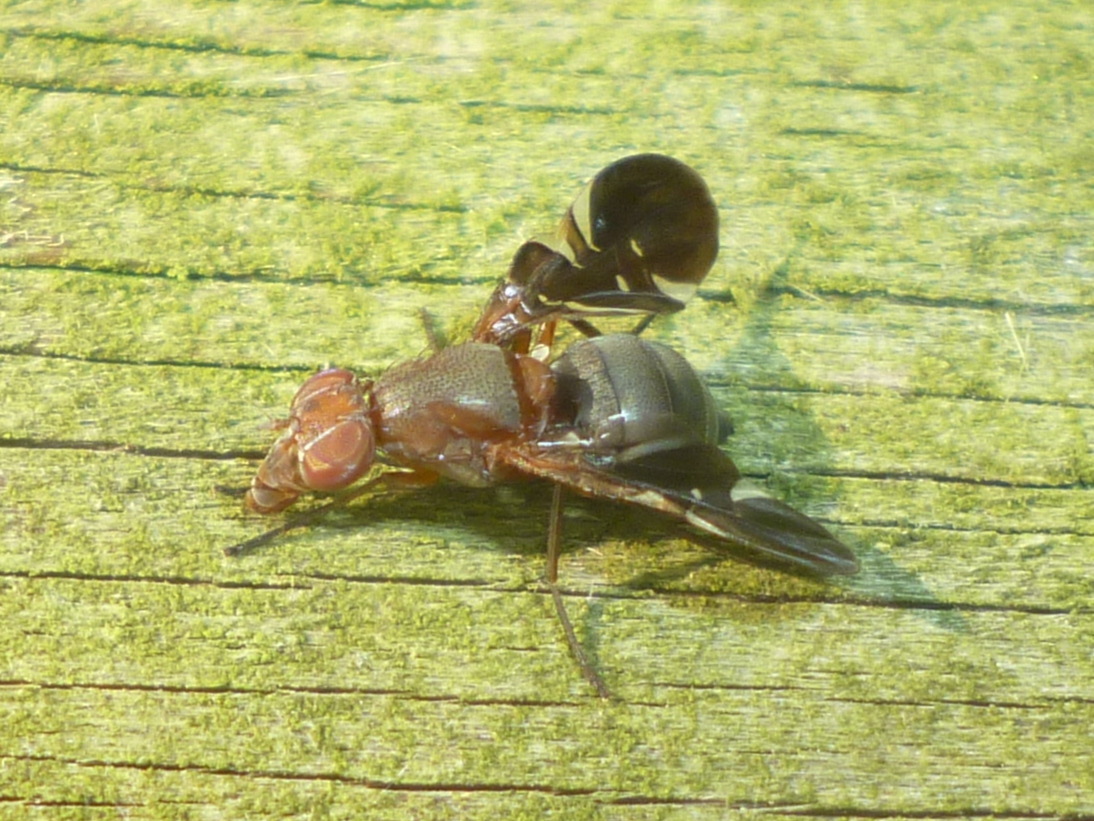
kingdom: Animalia
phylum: Arthropoda
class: Insecta
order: Diptera
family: Ulidiidae
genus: Delphinia
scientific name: Delphinia picta
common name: Common picture-winged fly
